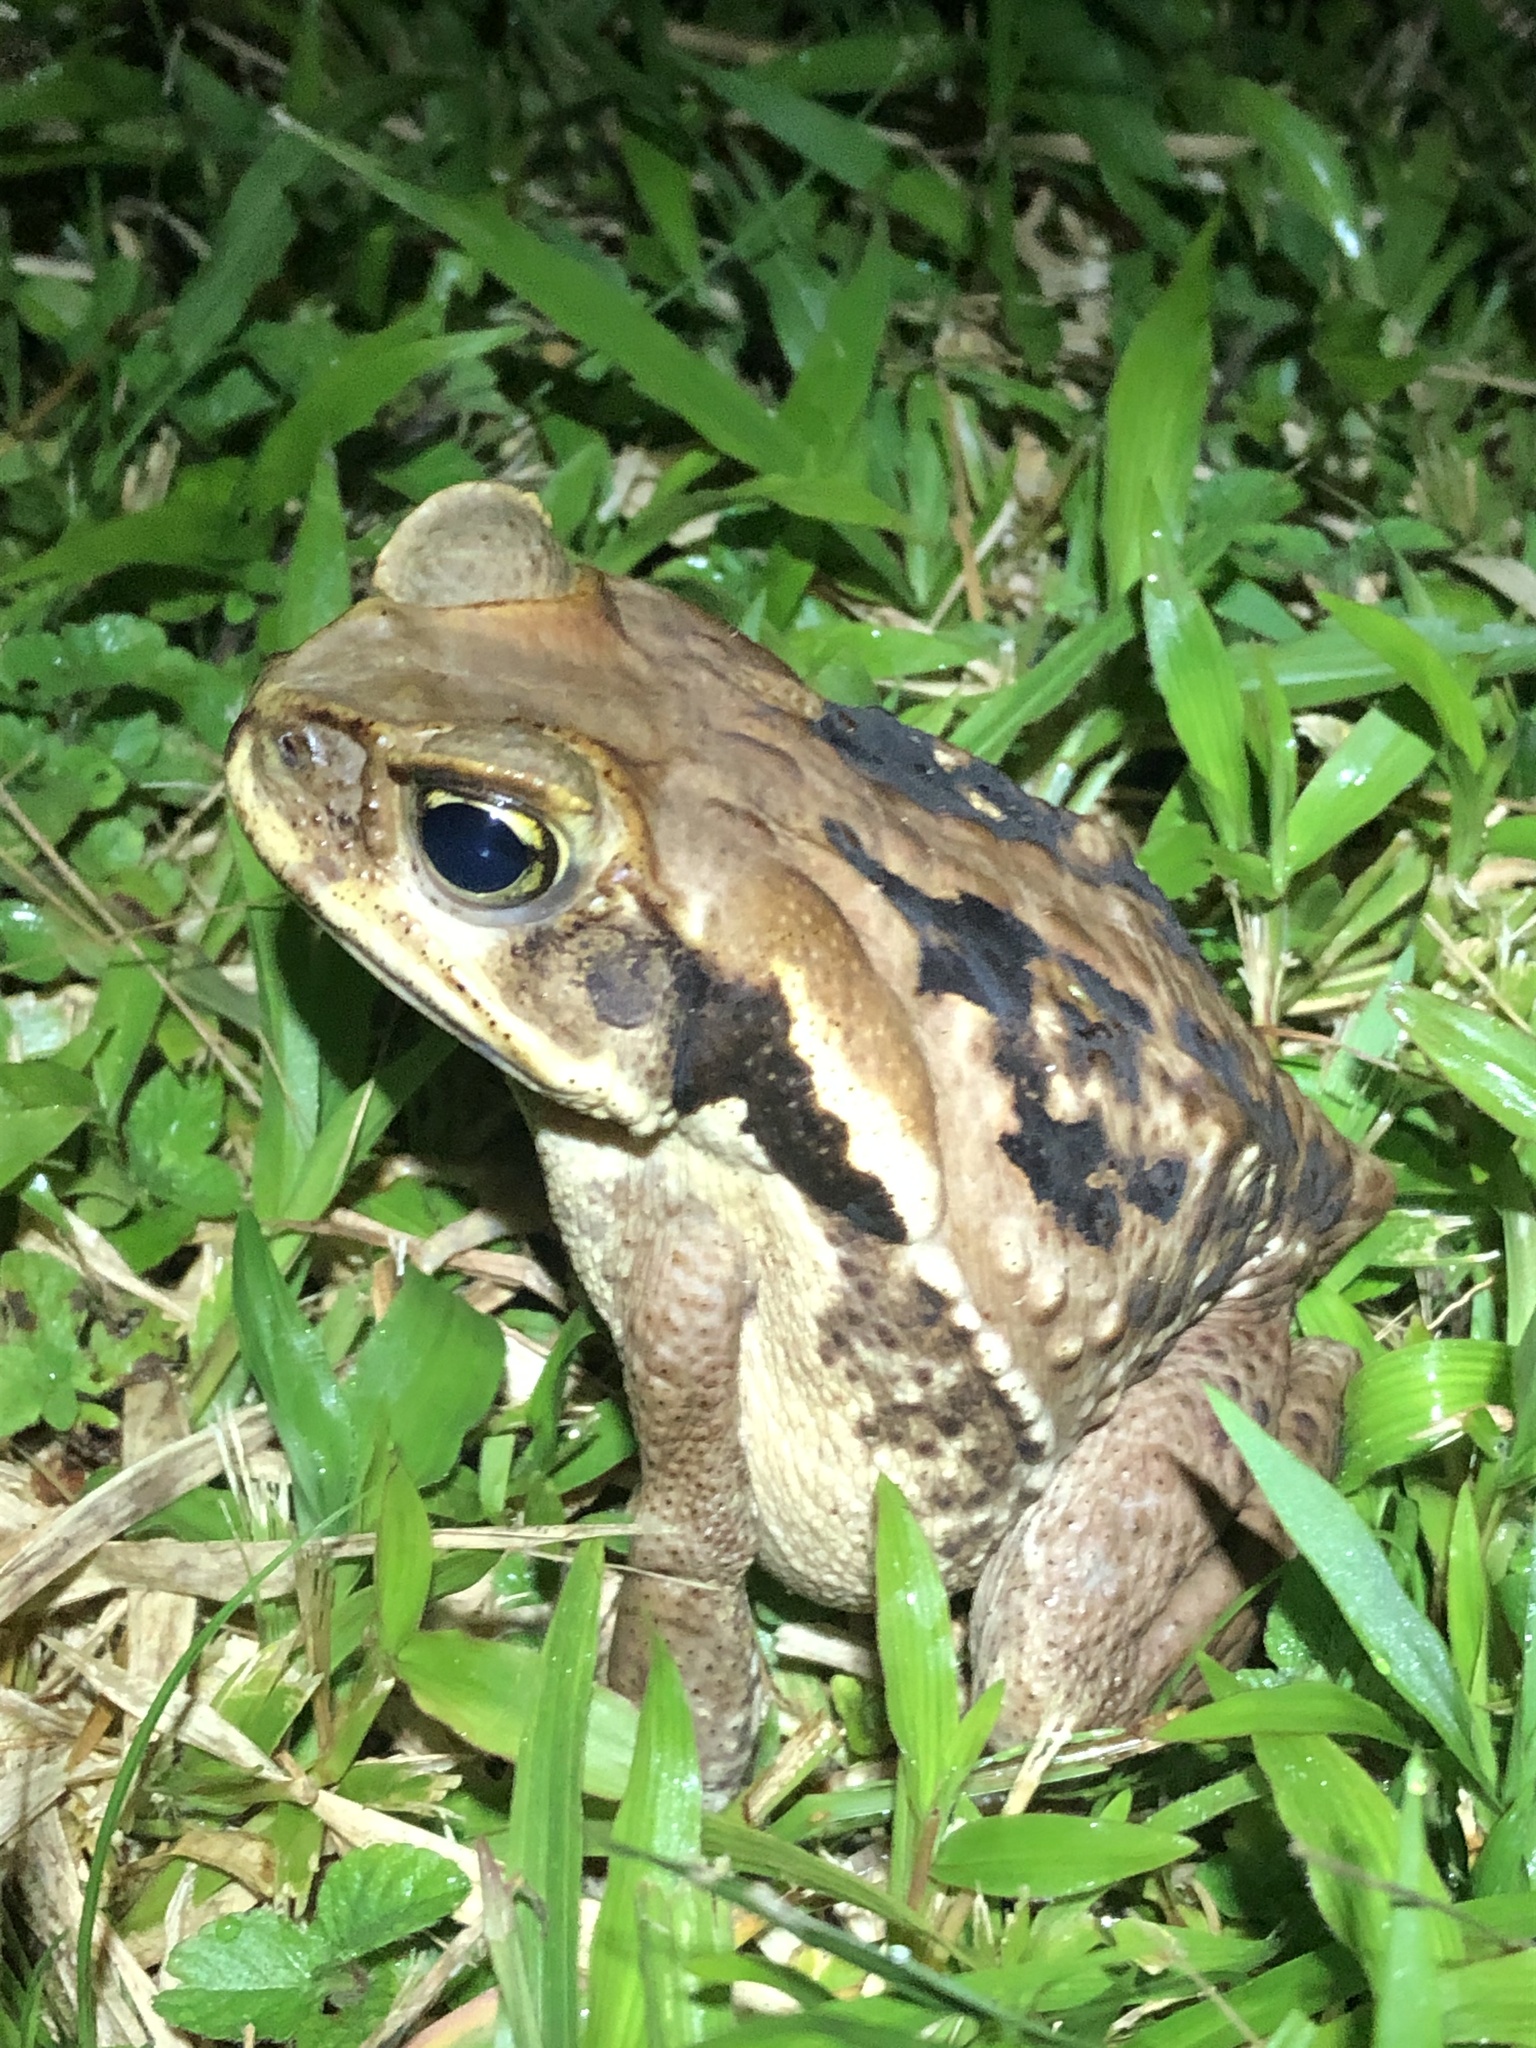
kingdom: Animalia
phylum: Chordata
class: Amphibia
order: Anura
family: Bufonidae
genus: Rhinella
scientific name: Rhinella marina
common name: Cane toad
